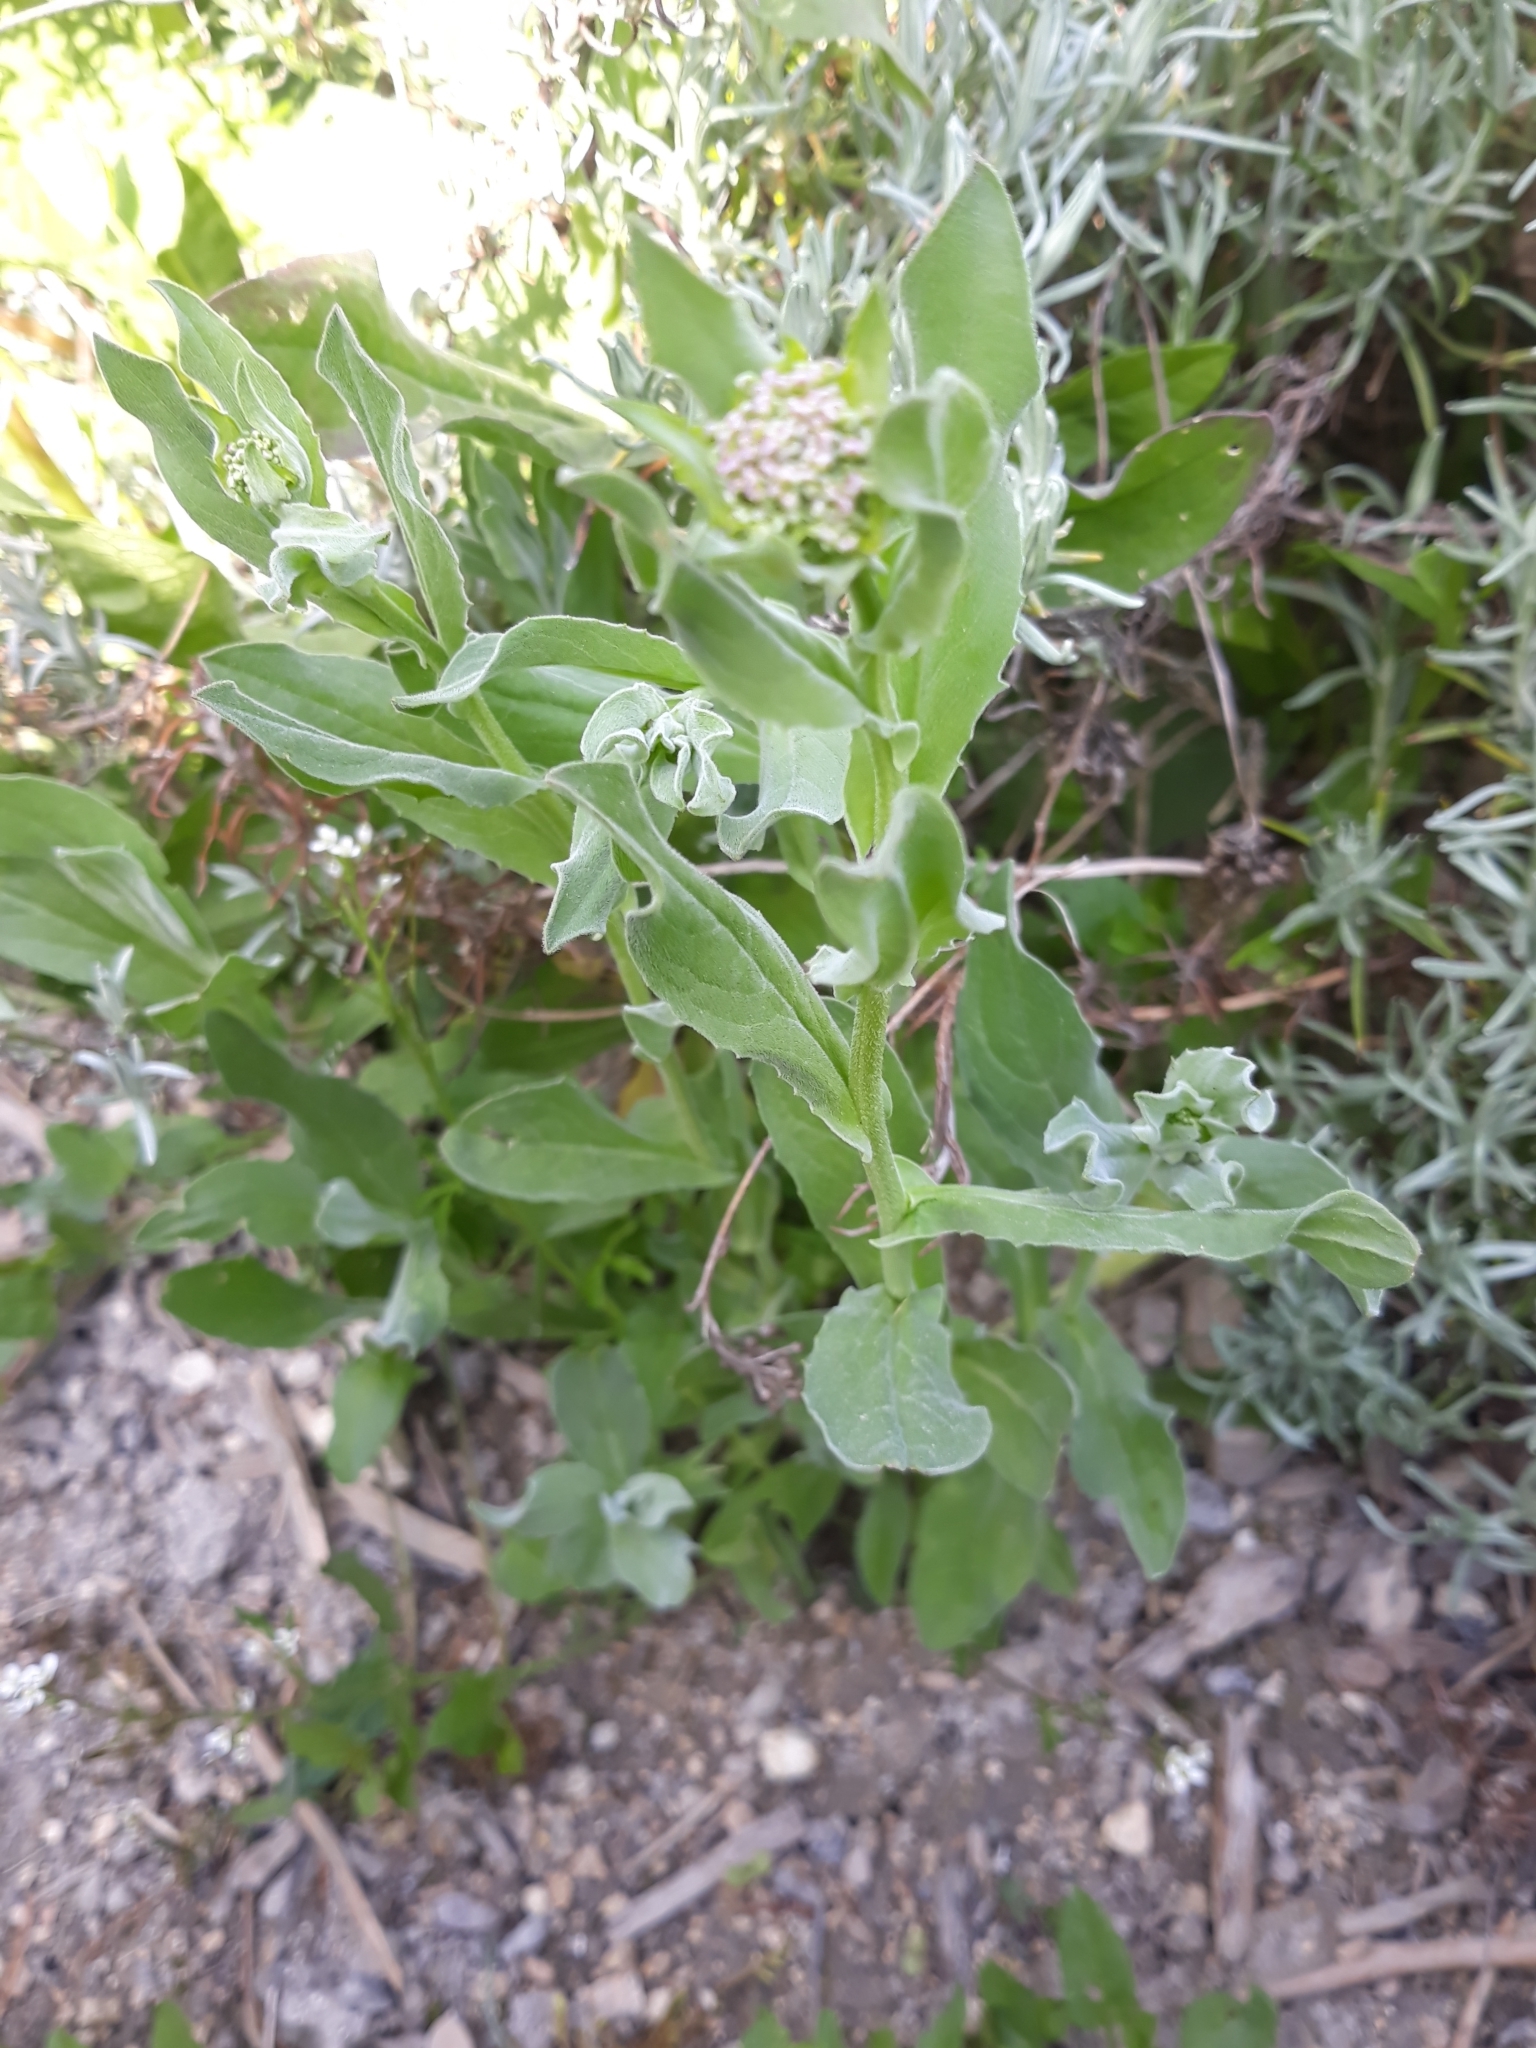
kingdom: Plantae
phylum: Tracheophyta
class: Magnoliopsida
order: Brassicales
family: Brassicaceae
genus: Lepidium
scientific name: Lepidium draba
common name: Hoary cress
